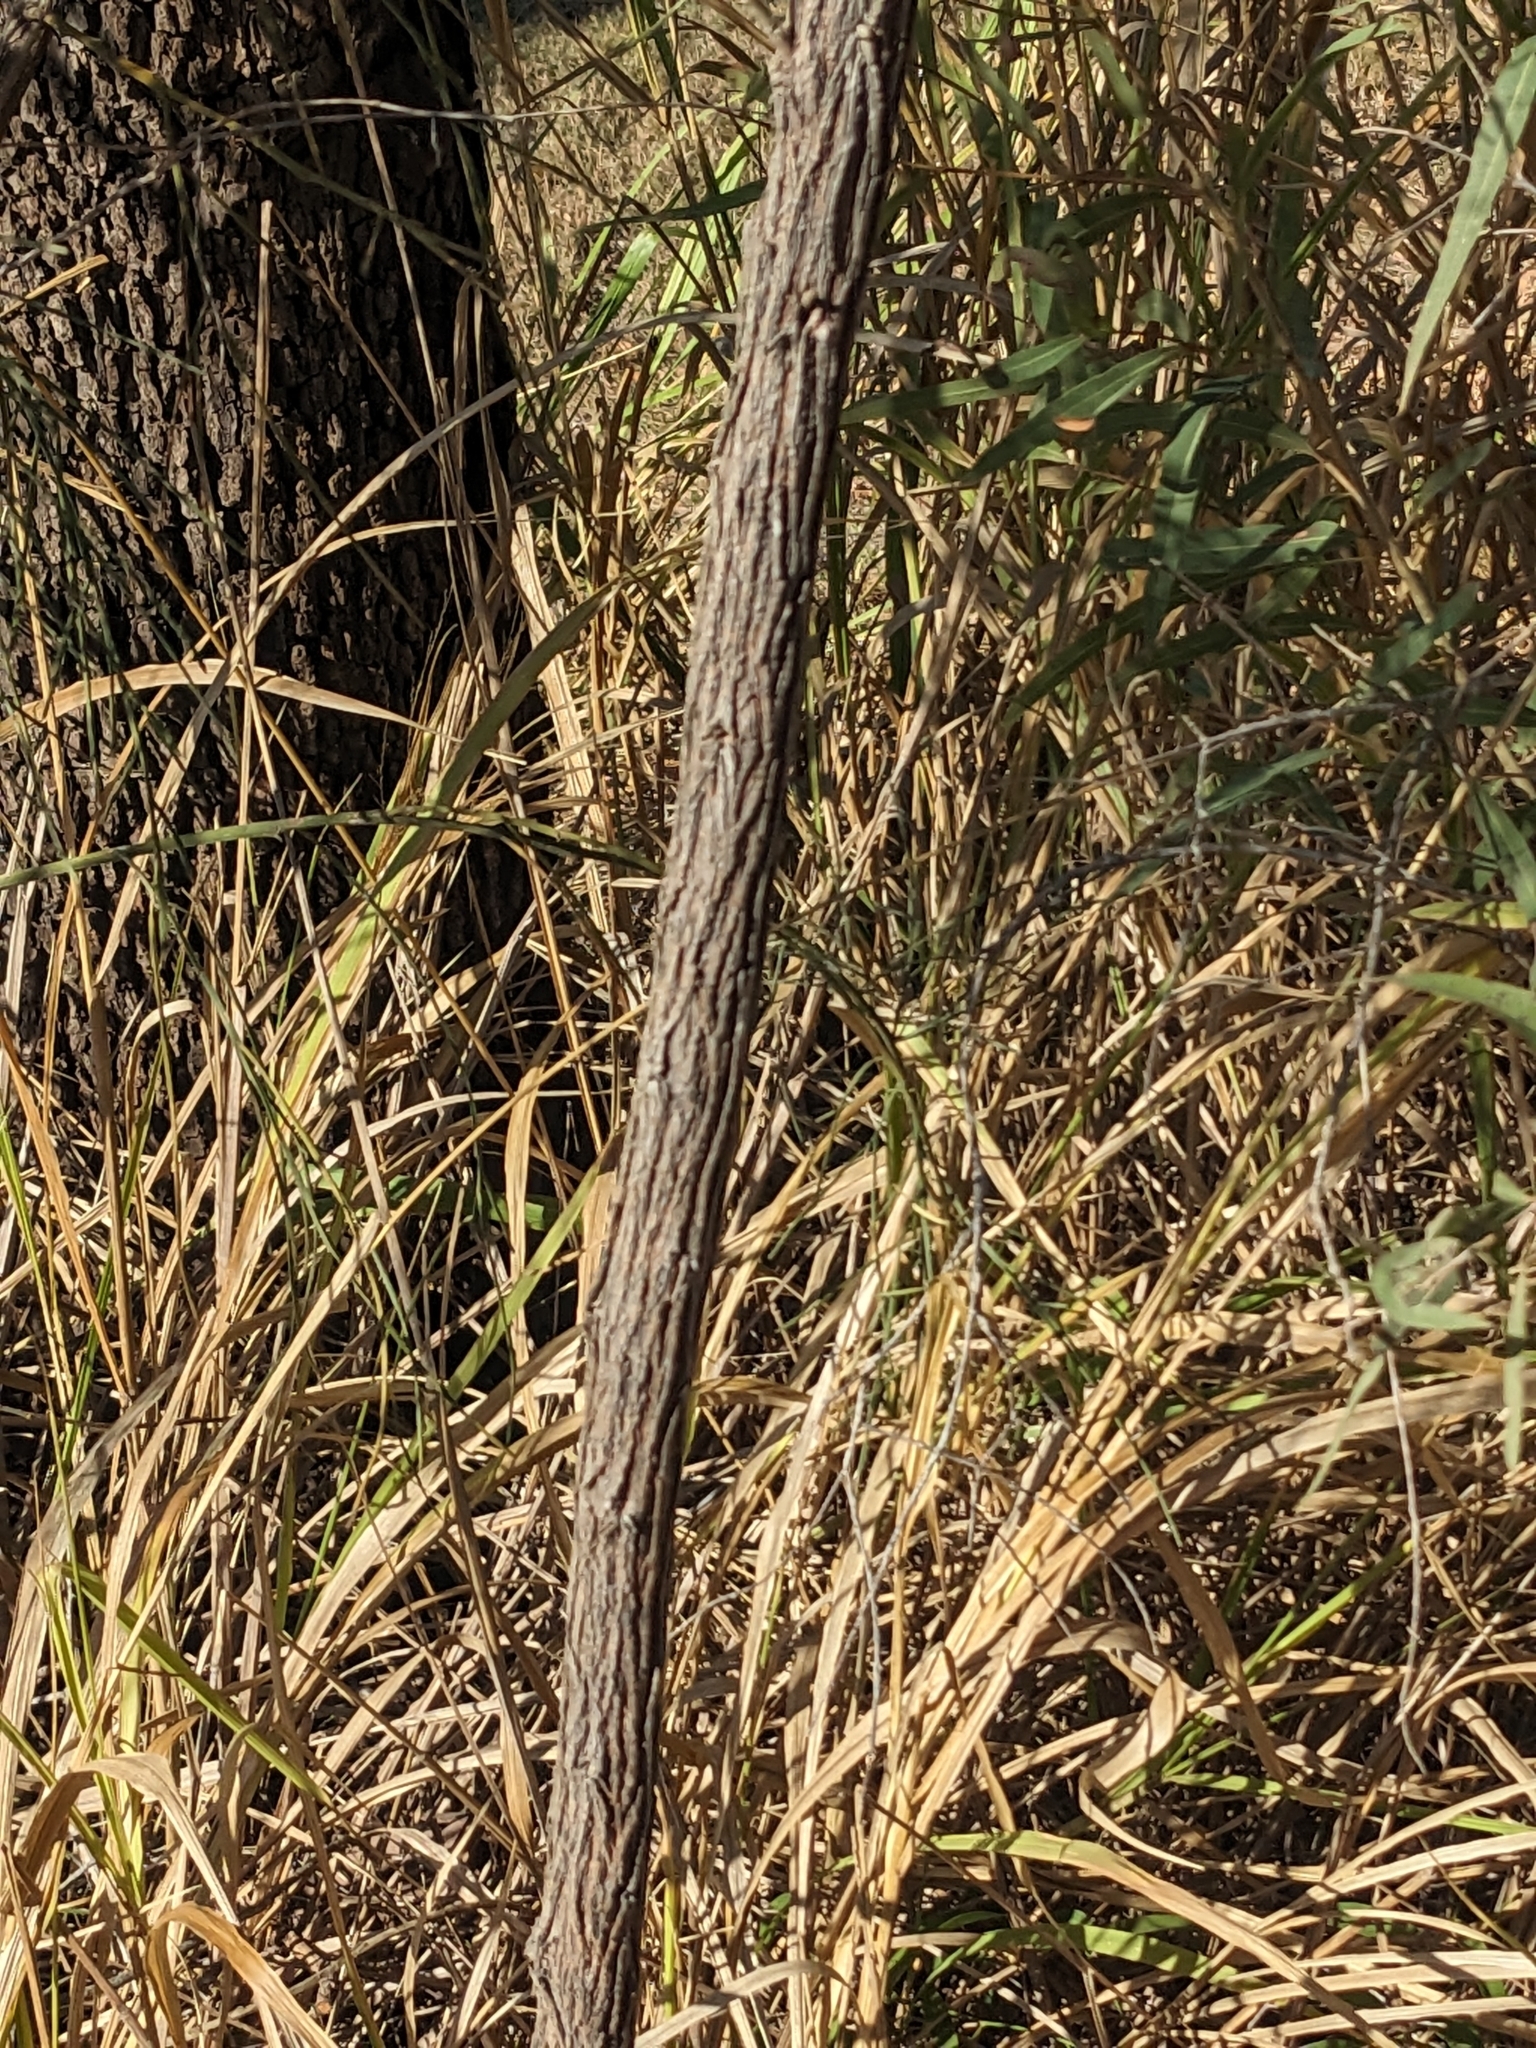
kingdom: Plantae
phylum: Tracheophyta
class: Magnoliopsida
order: Fabales
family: Fabaceae
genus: Jacksonia
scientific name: Jacksonia scoparia
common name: Dogwood
